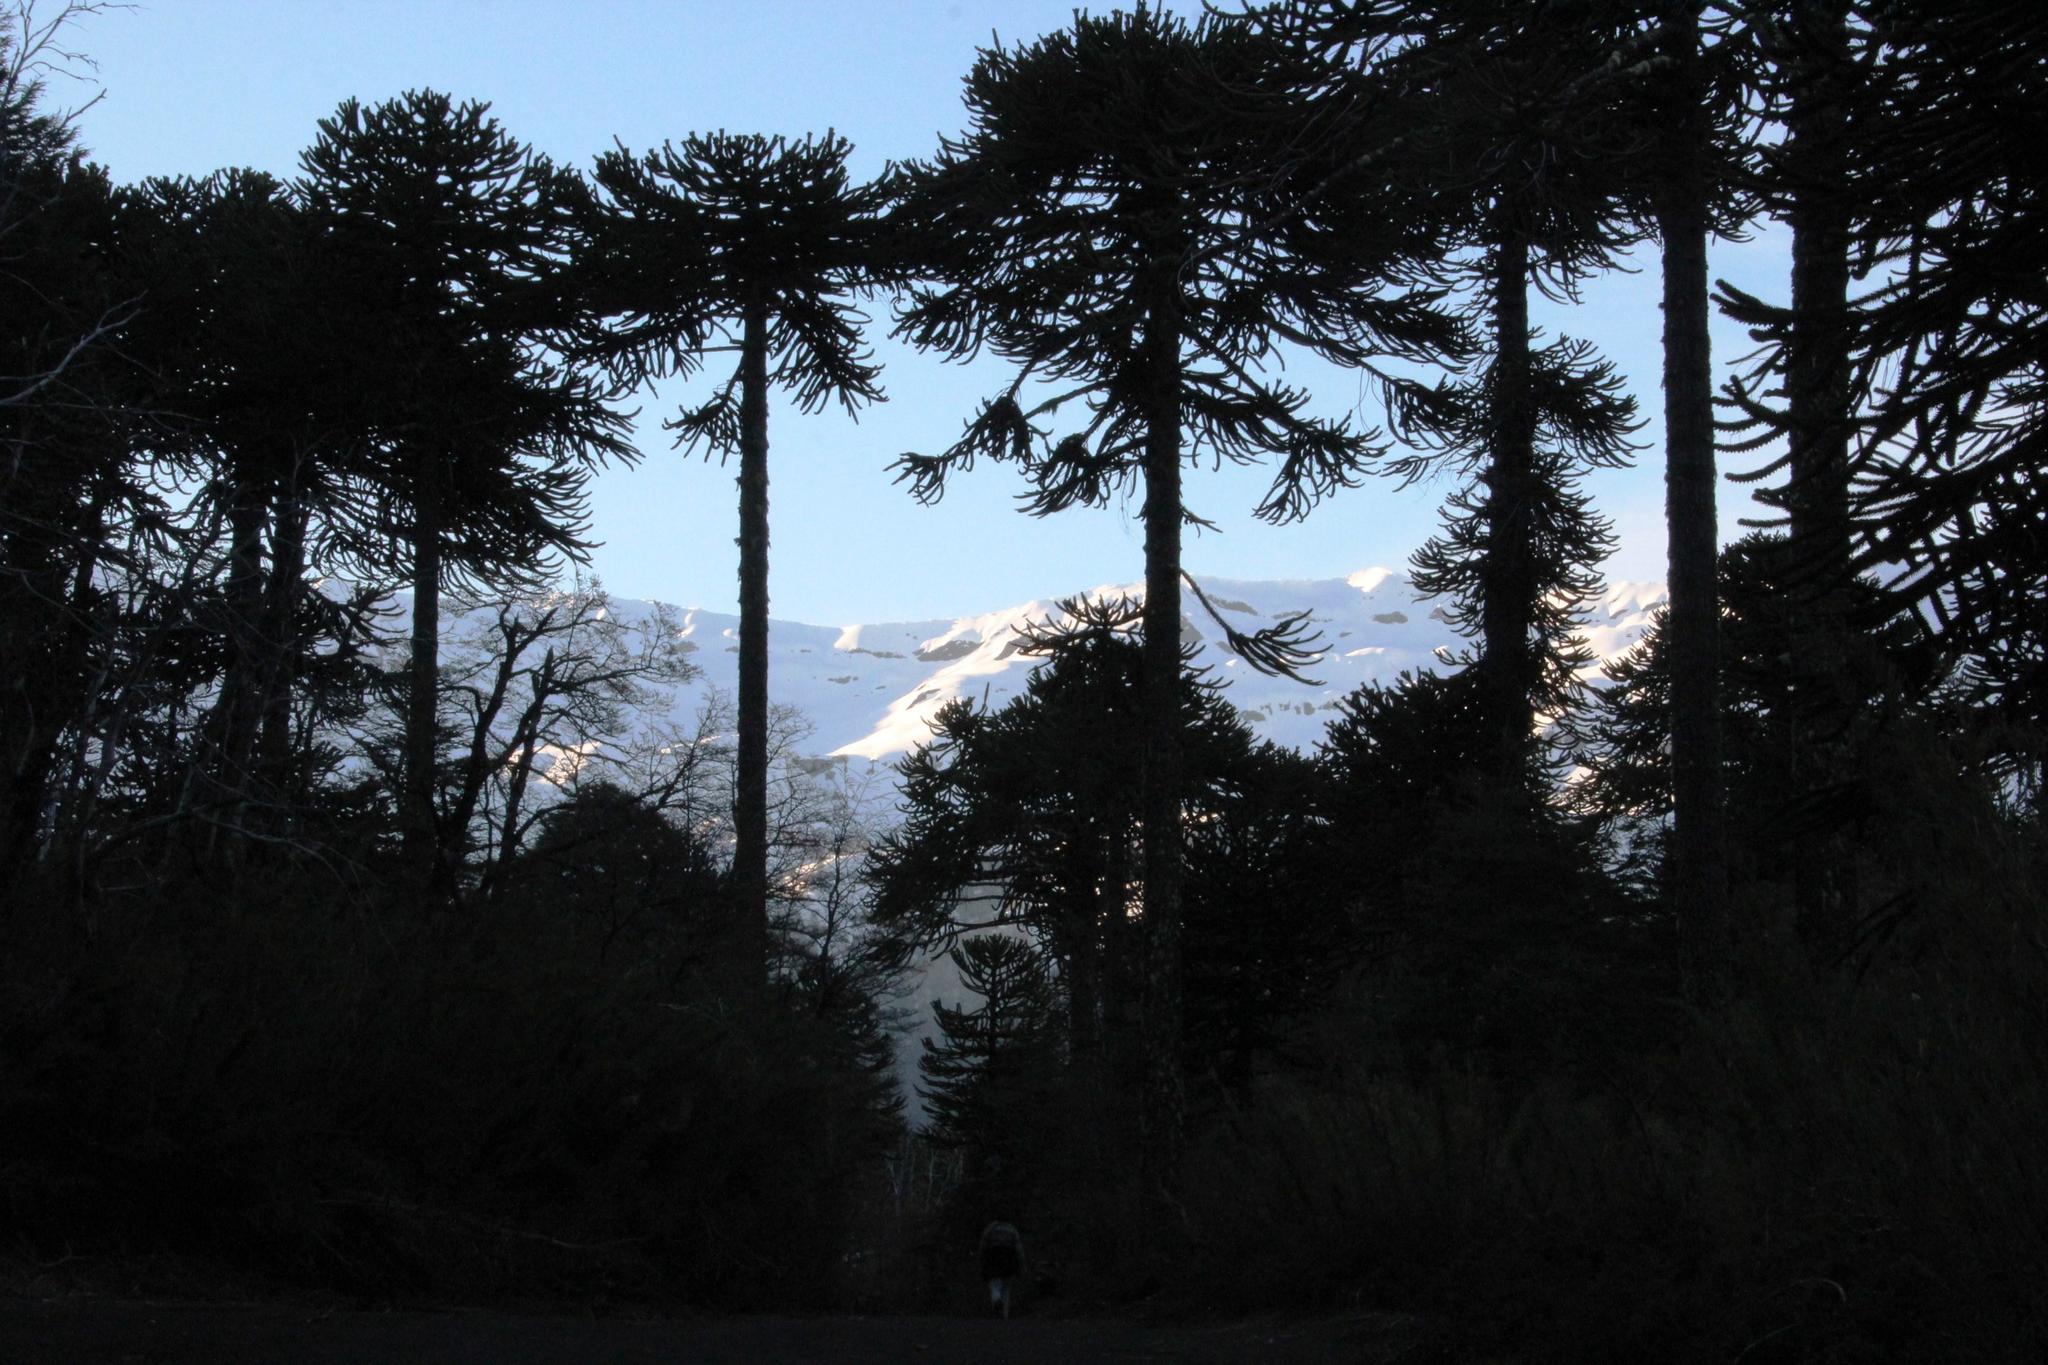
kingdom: Plantae
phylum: Tracheophyta
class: Pinopsida
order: Pinales
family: Araucariaceae
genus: Araucaria
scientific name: Araucaria araucana
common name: Monkey-puzzle
